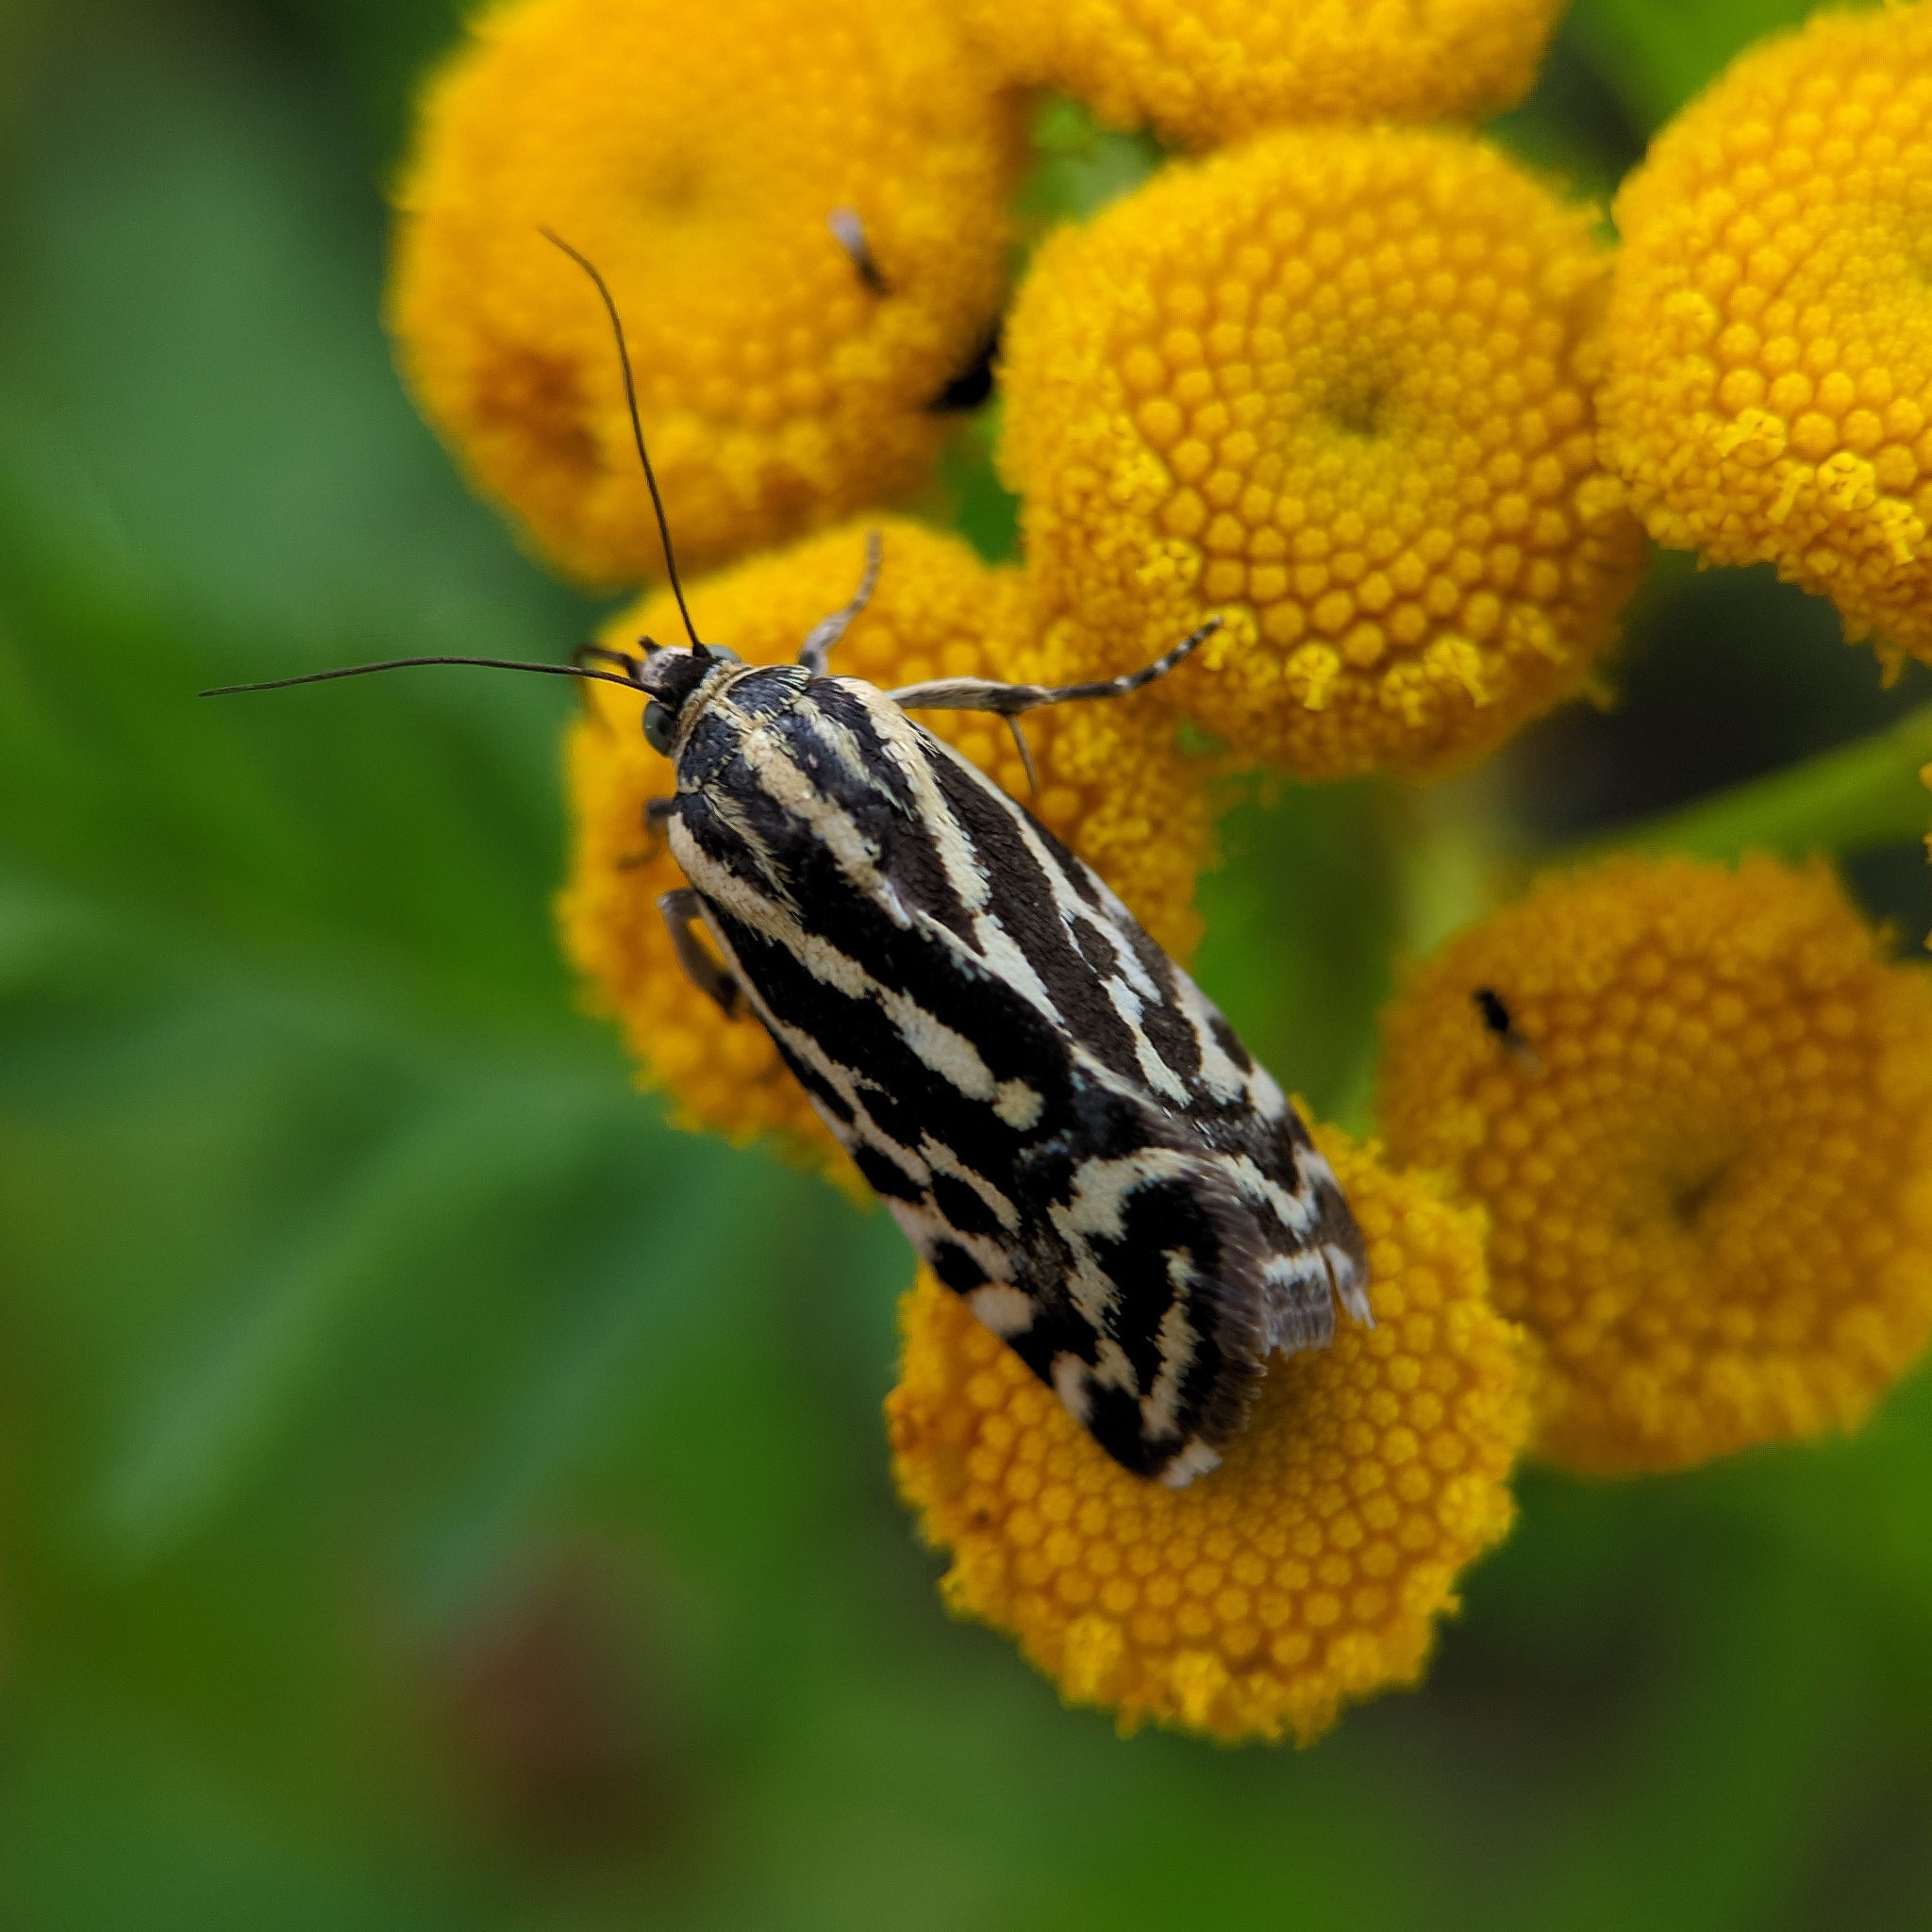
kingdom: Animalia
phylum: Arthropoda
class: Insecta
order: Lepidoptera
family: Noctuidae
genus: Acontia
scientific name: Acontia trabealis
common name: Spotted sulphur
